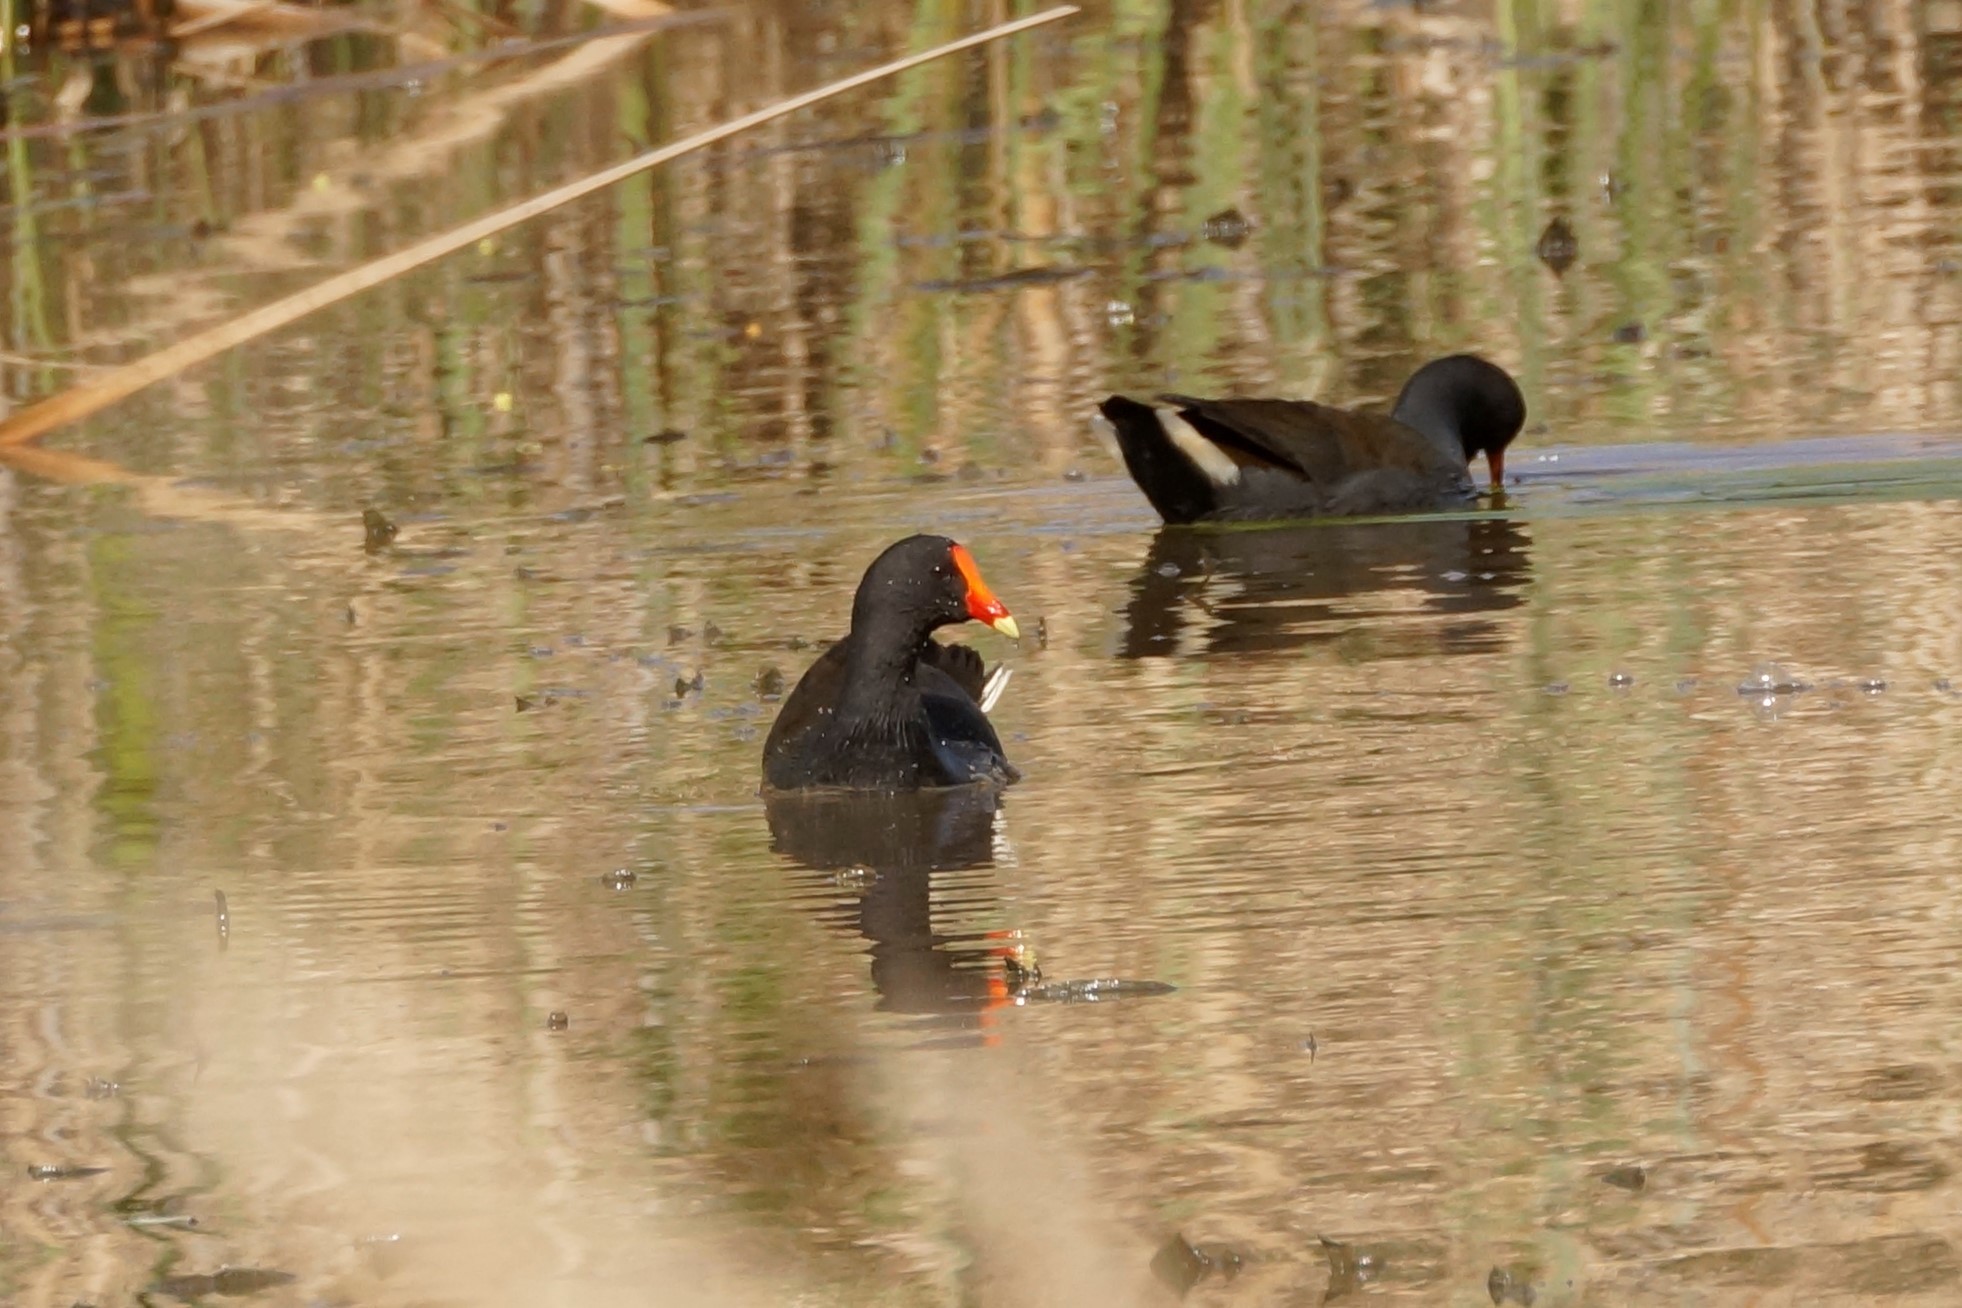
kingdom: Animalia
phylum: Chordata
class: Aves
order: Gruiformes
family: Rallidae
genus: Gallinula
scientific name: Gallinula tenebrosa
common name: Dusky moorhen
